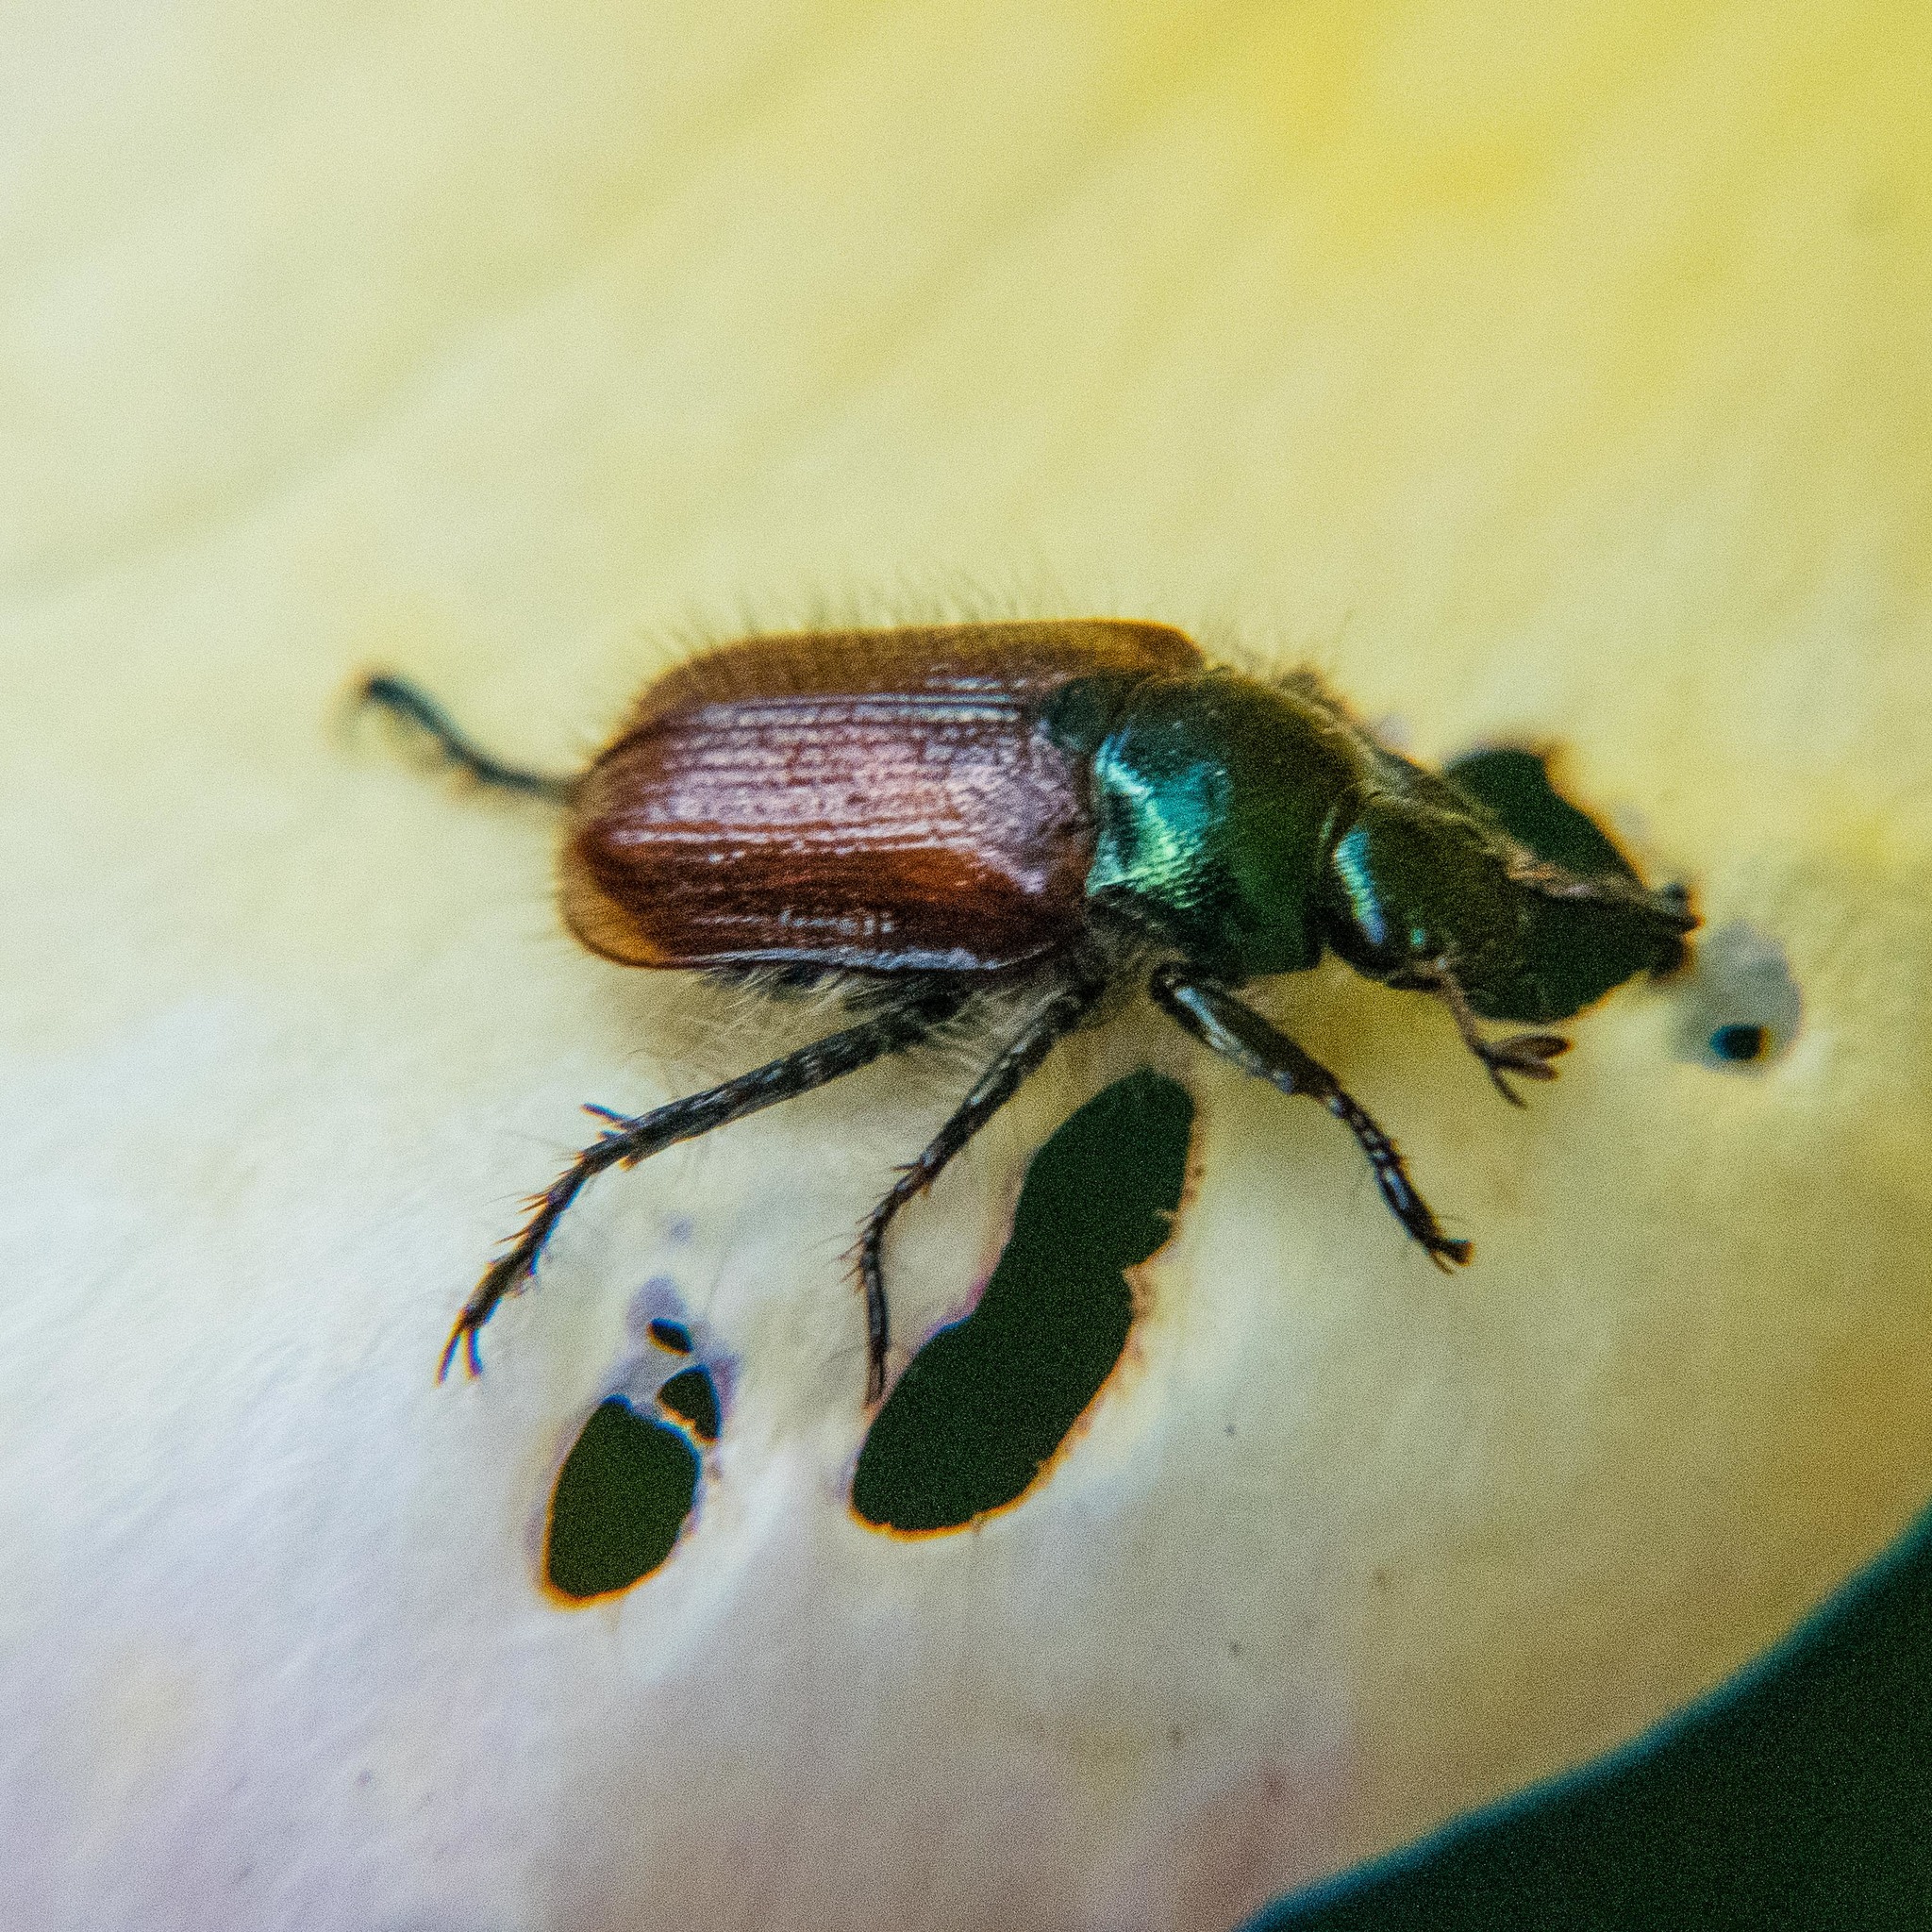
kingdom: Animalia
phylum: Arthropoda
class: Insecta
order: Coleoptera
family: Scarabaeidae
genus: Phyllopertha
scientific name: Phyllopertha horticola
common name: Garden chafer
